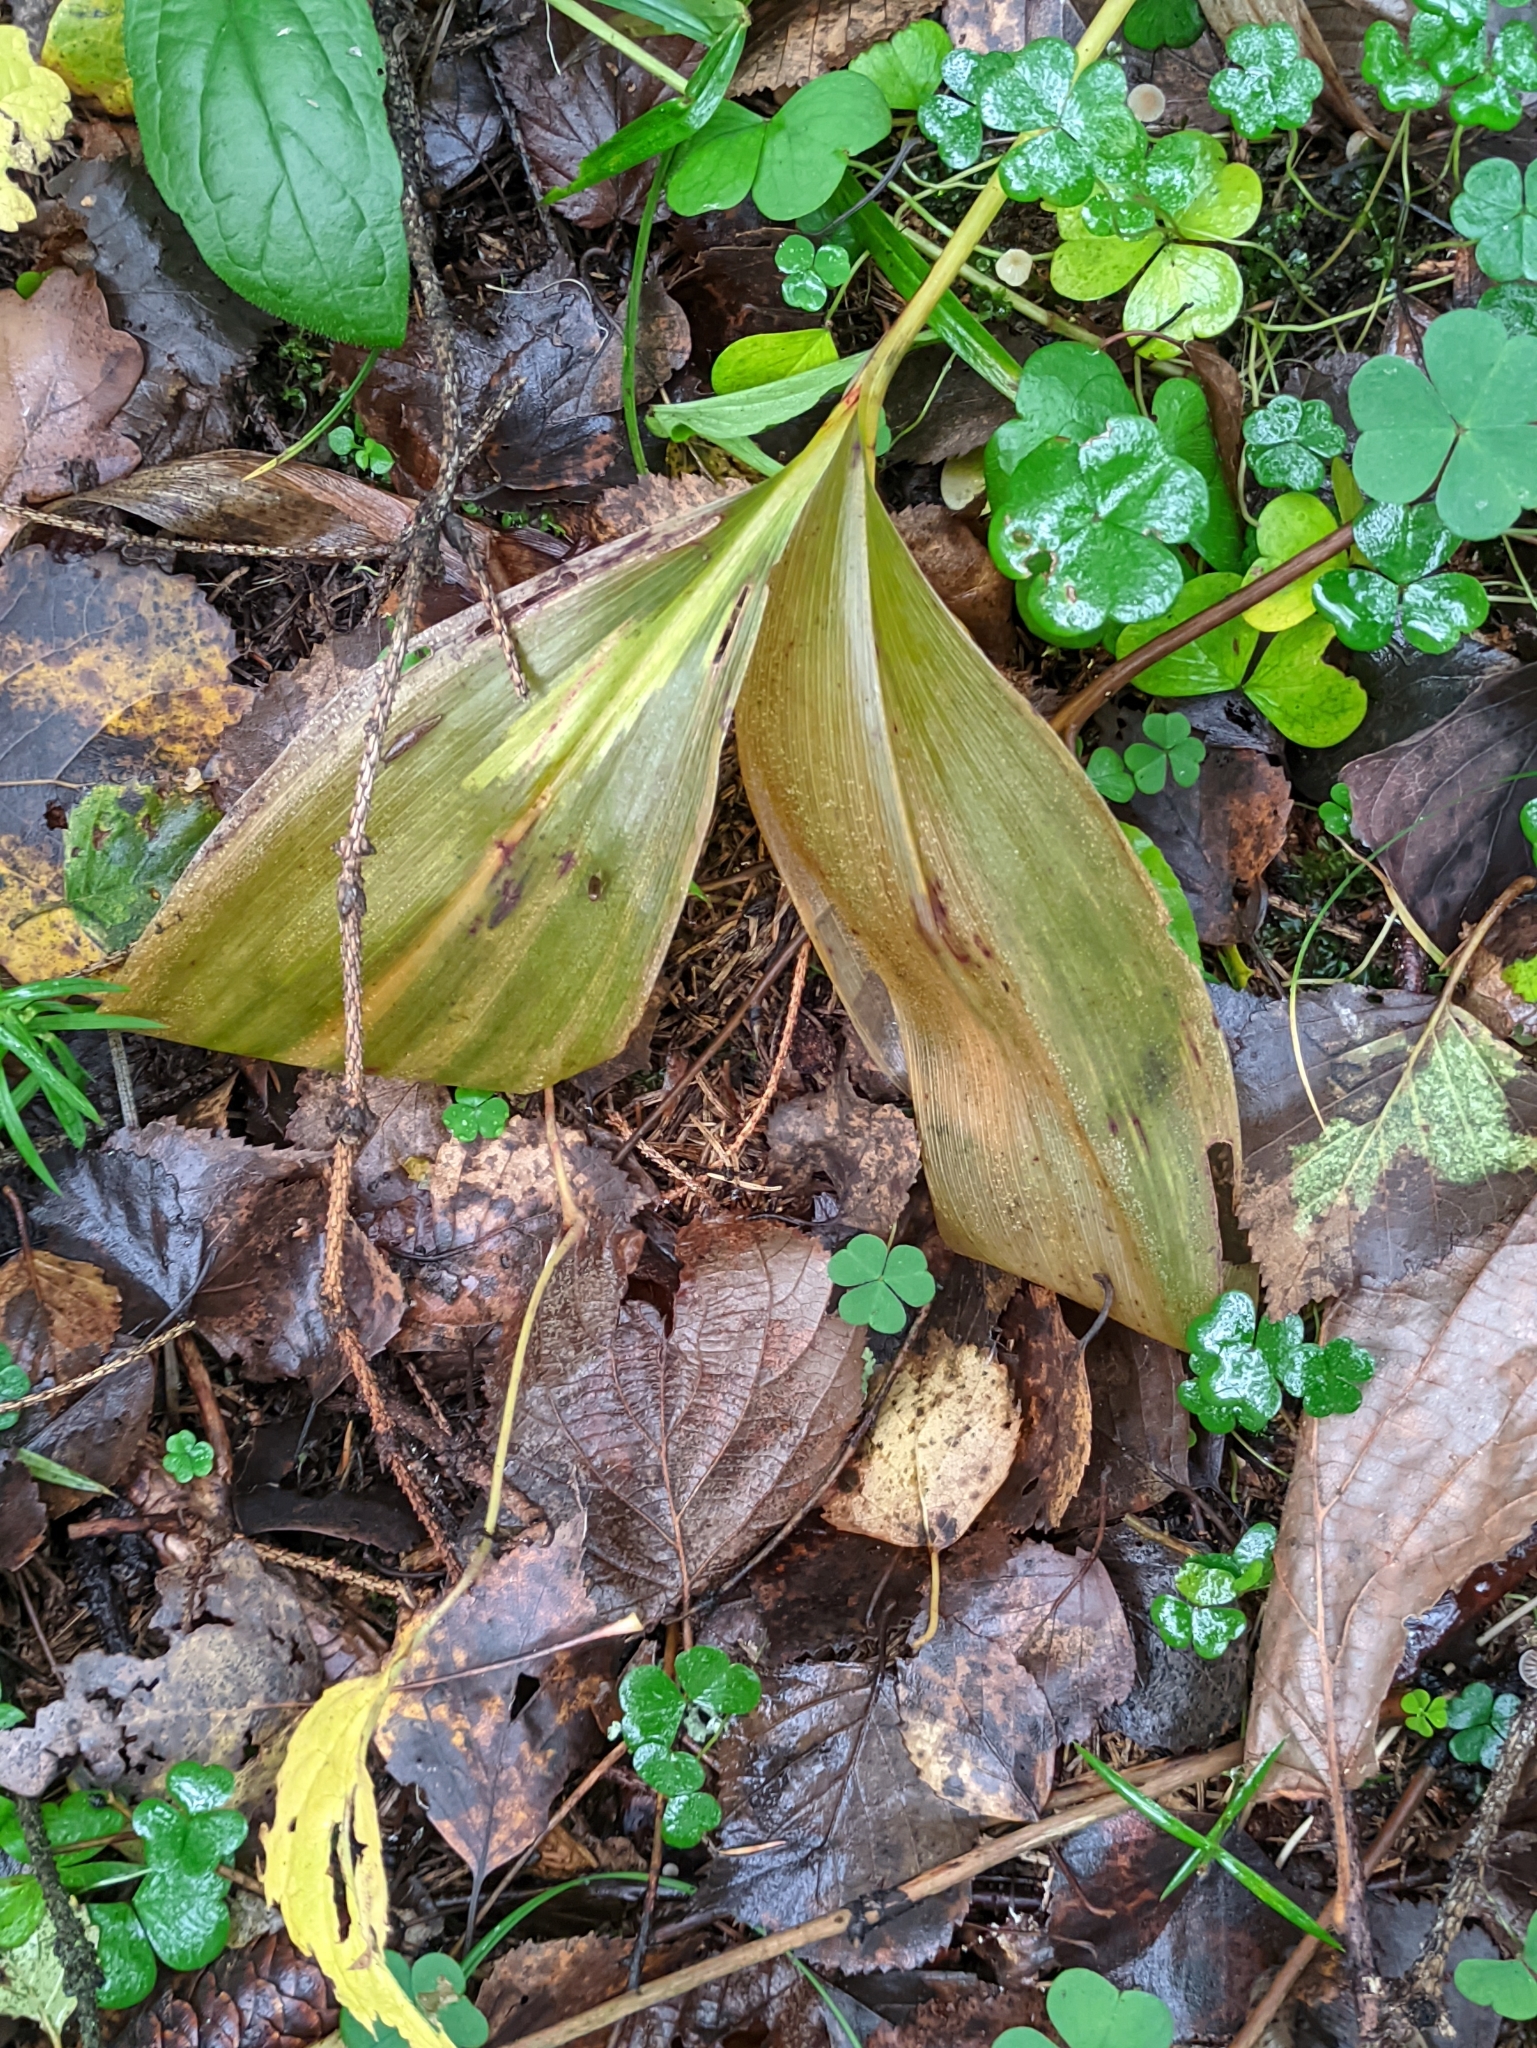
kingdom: Plantae
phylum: Tracheophyta
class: Liliopsida
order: Asparagales
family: Asparagaceae
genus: Convallaria
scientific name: Convallaria majalis
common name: Lily-of-the-valley
